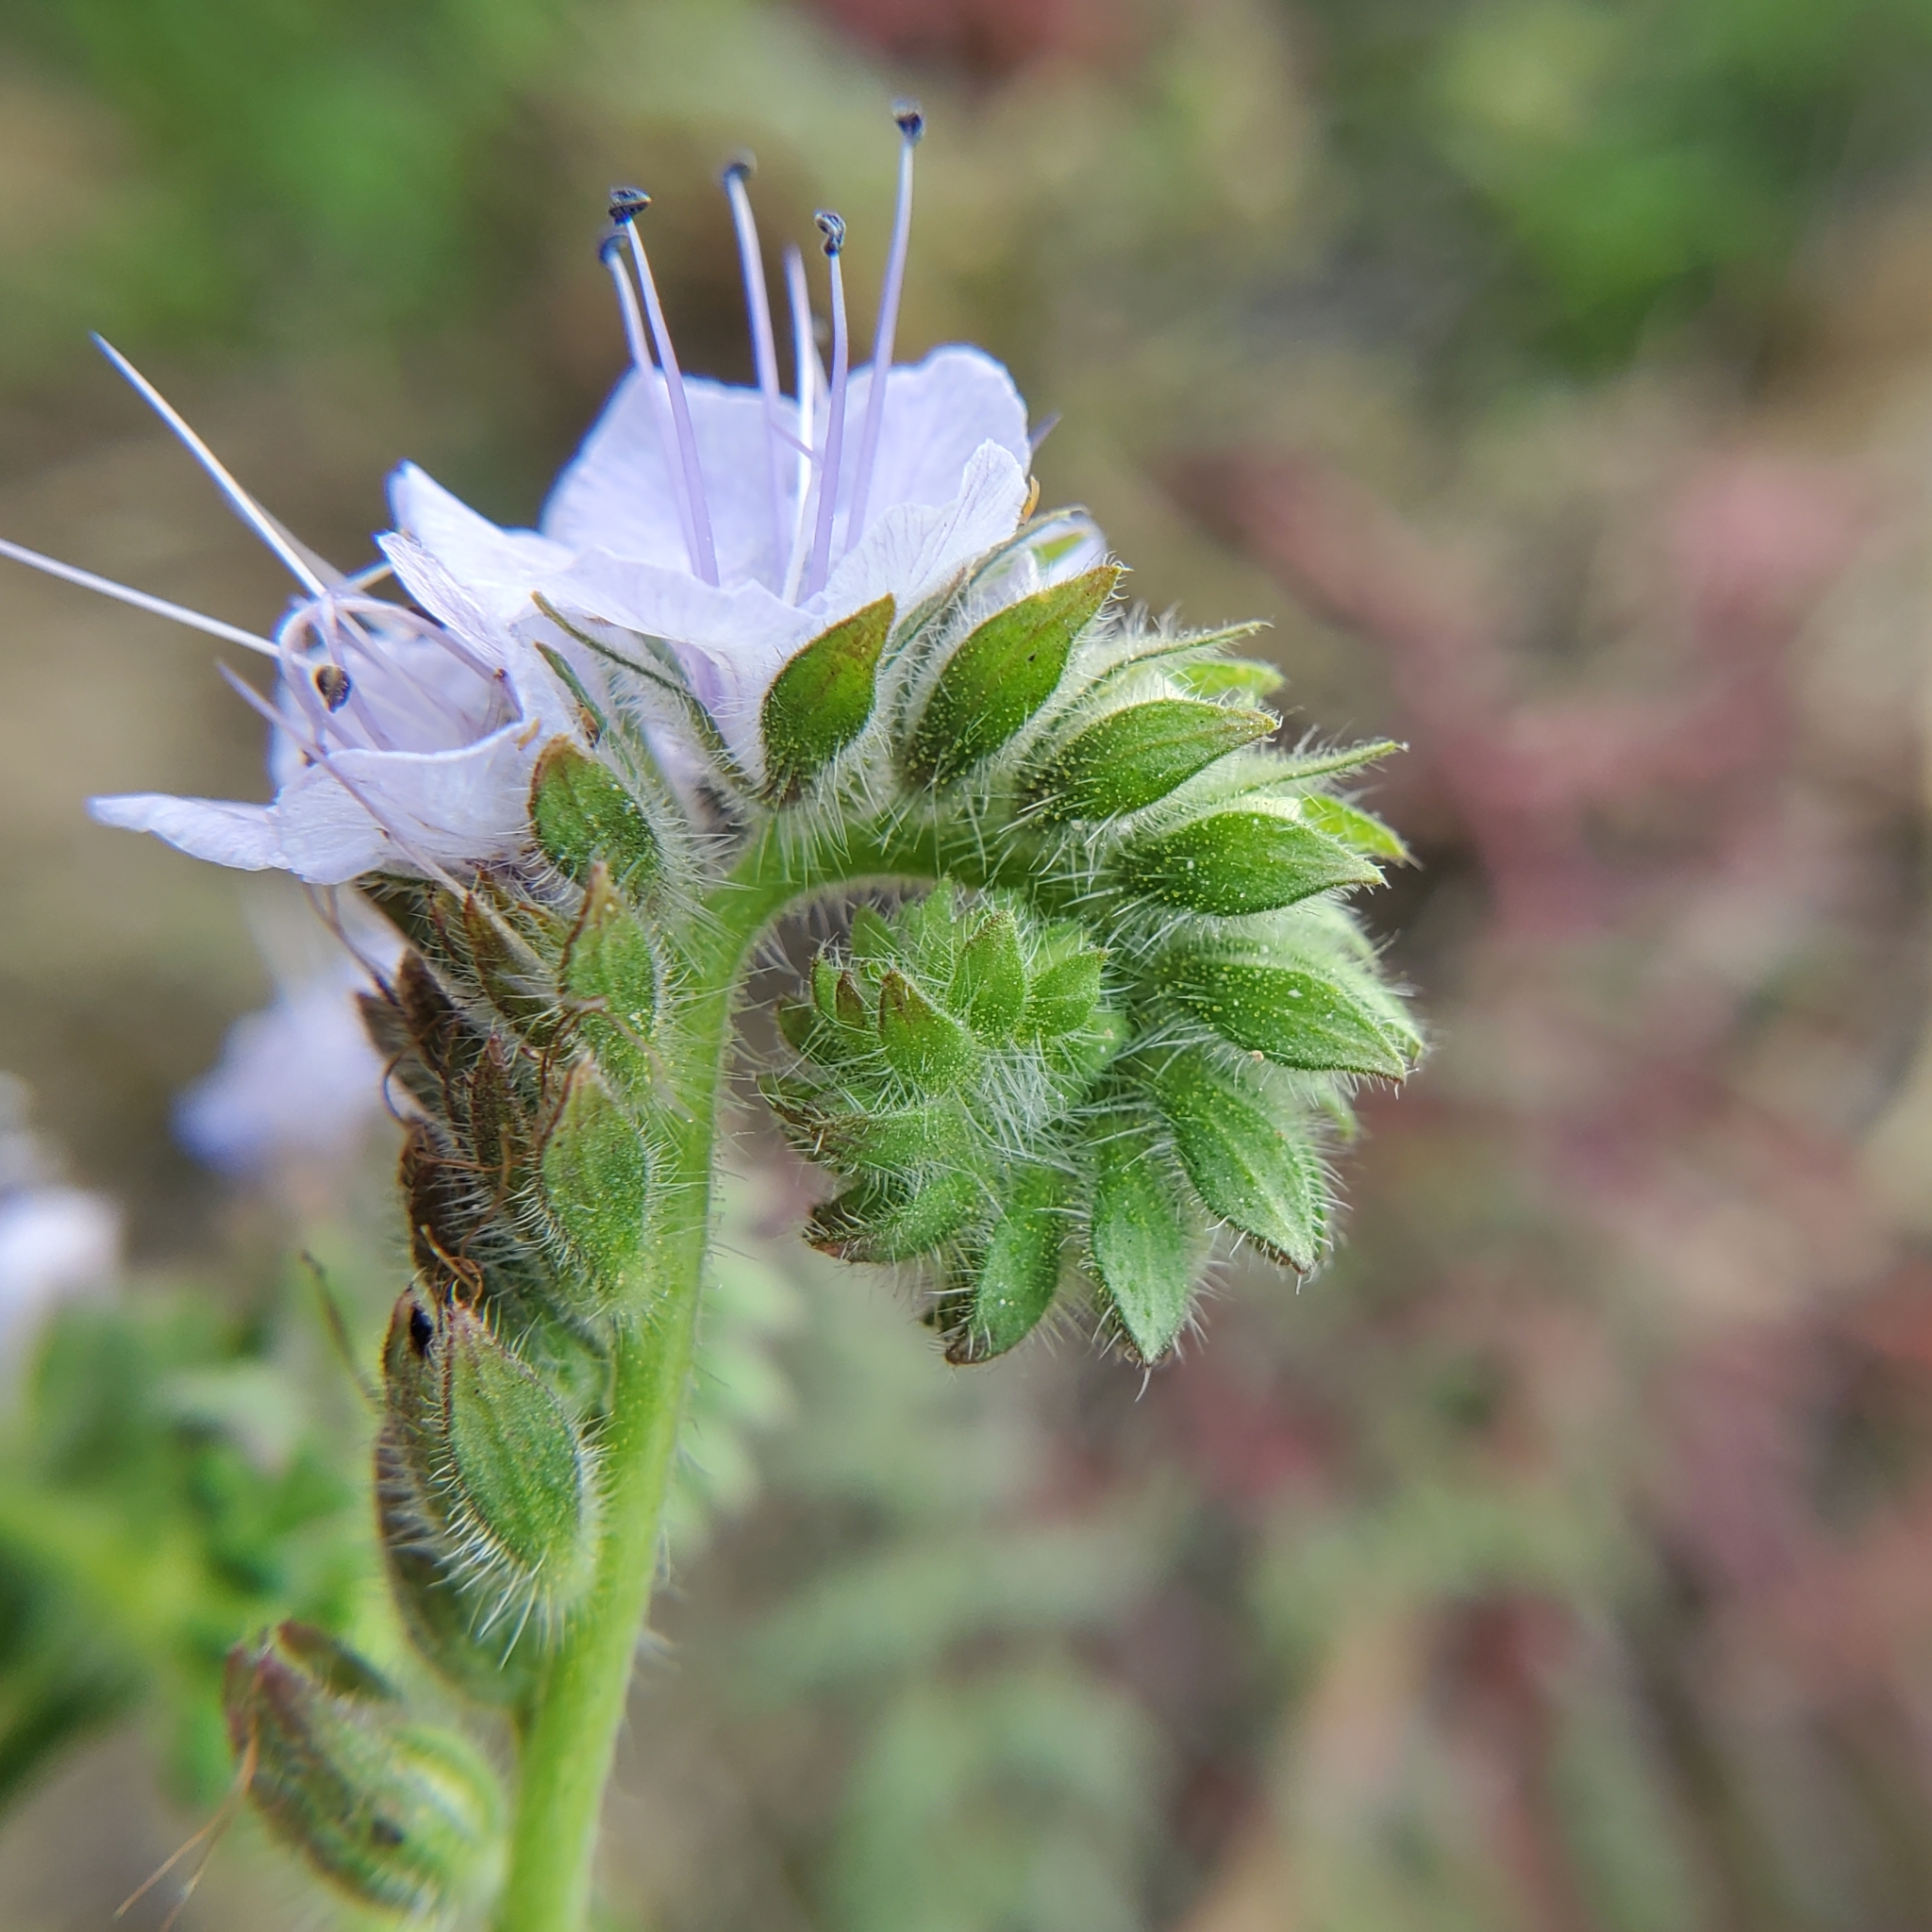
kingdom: Plantae
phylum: Tracheophyta
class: Magnoliopsida
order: Boraginales
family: Hydrophyllaceae
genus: Phacelia
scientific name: Phacelia distans
